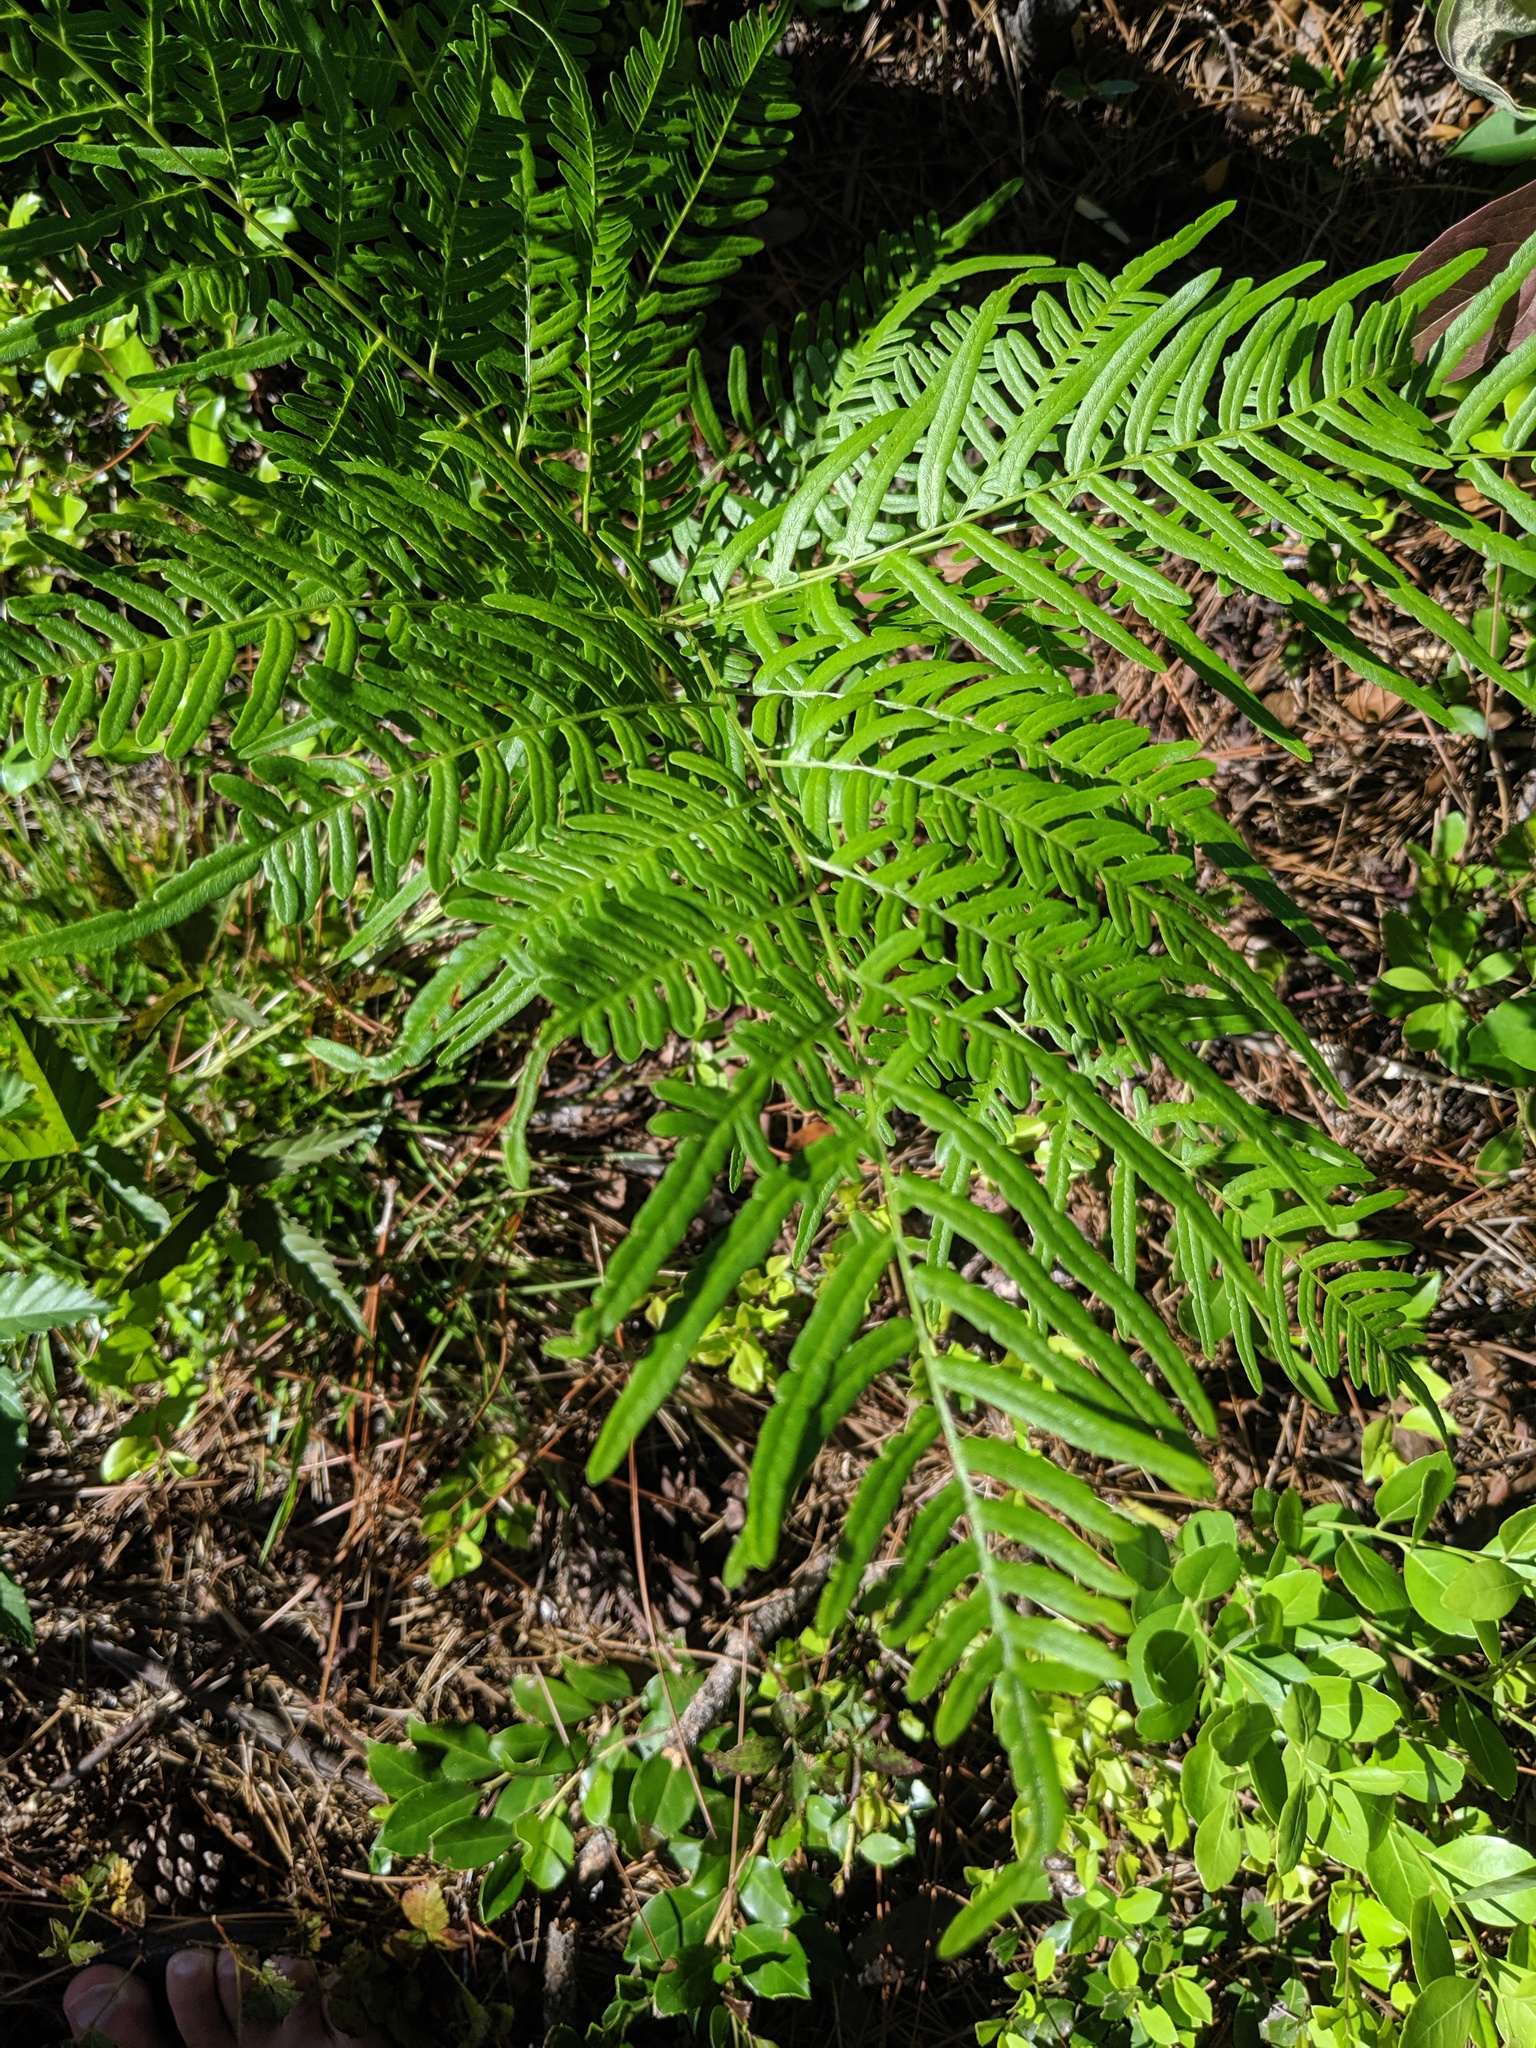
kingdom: Plantae
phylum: Tracheophyta
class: Polypodiopsida
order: Polypodiales
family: Dennstaedtiaceae
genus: Pteridium
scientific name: Pteridium
